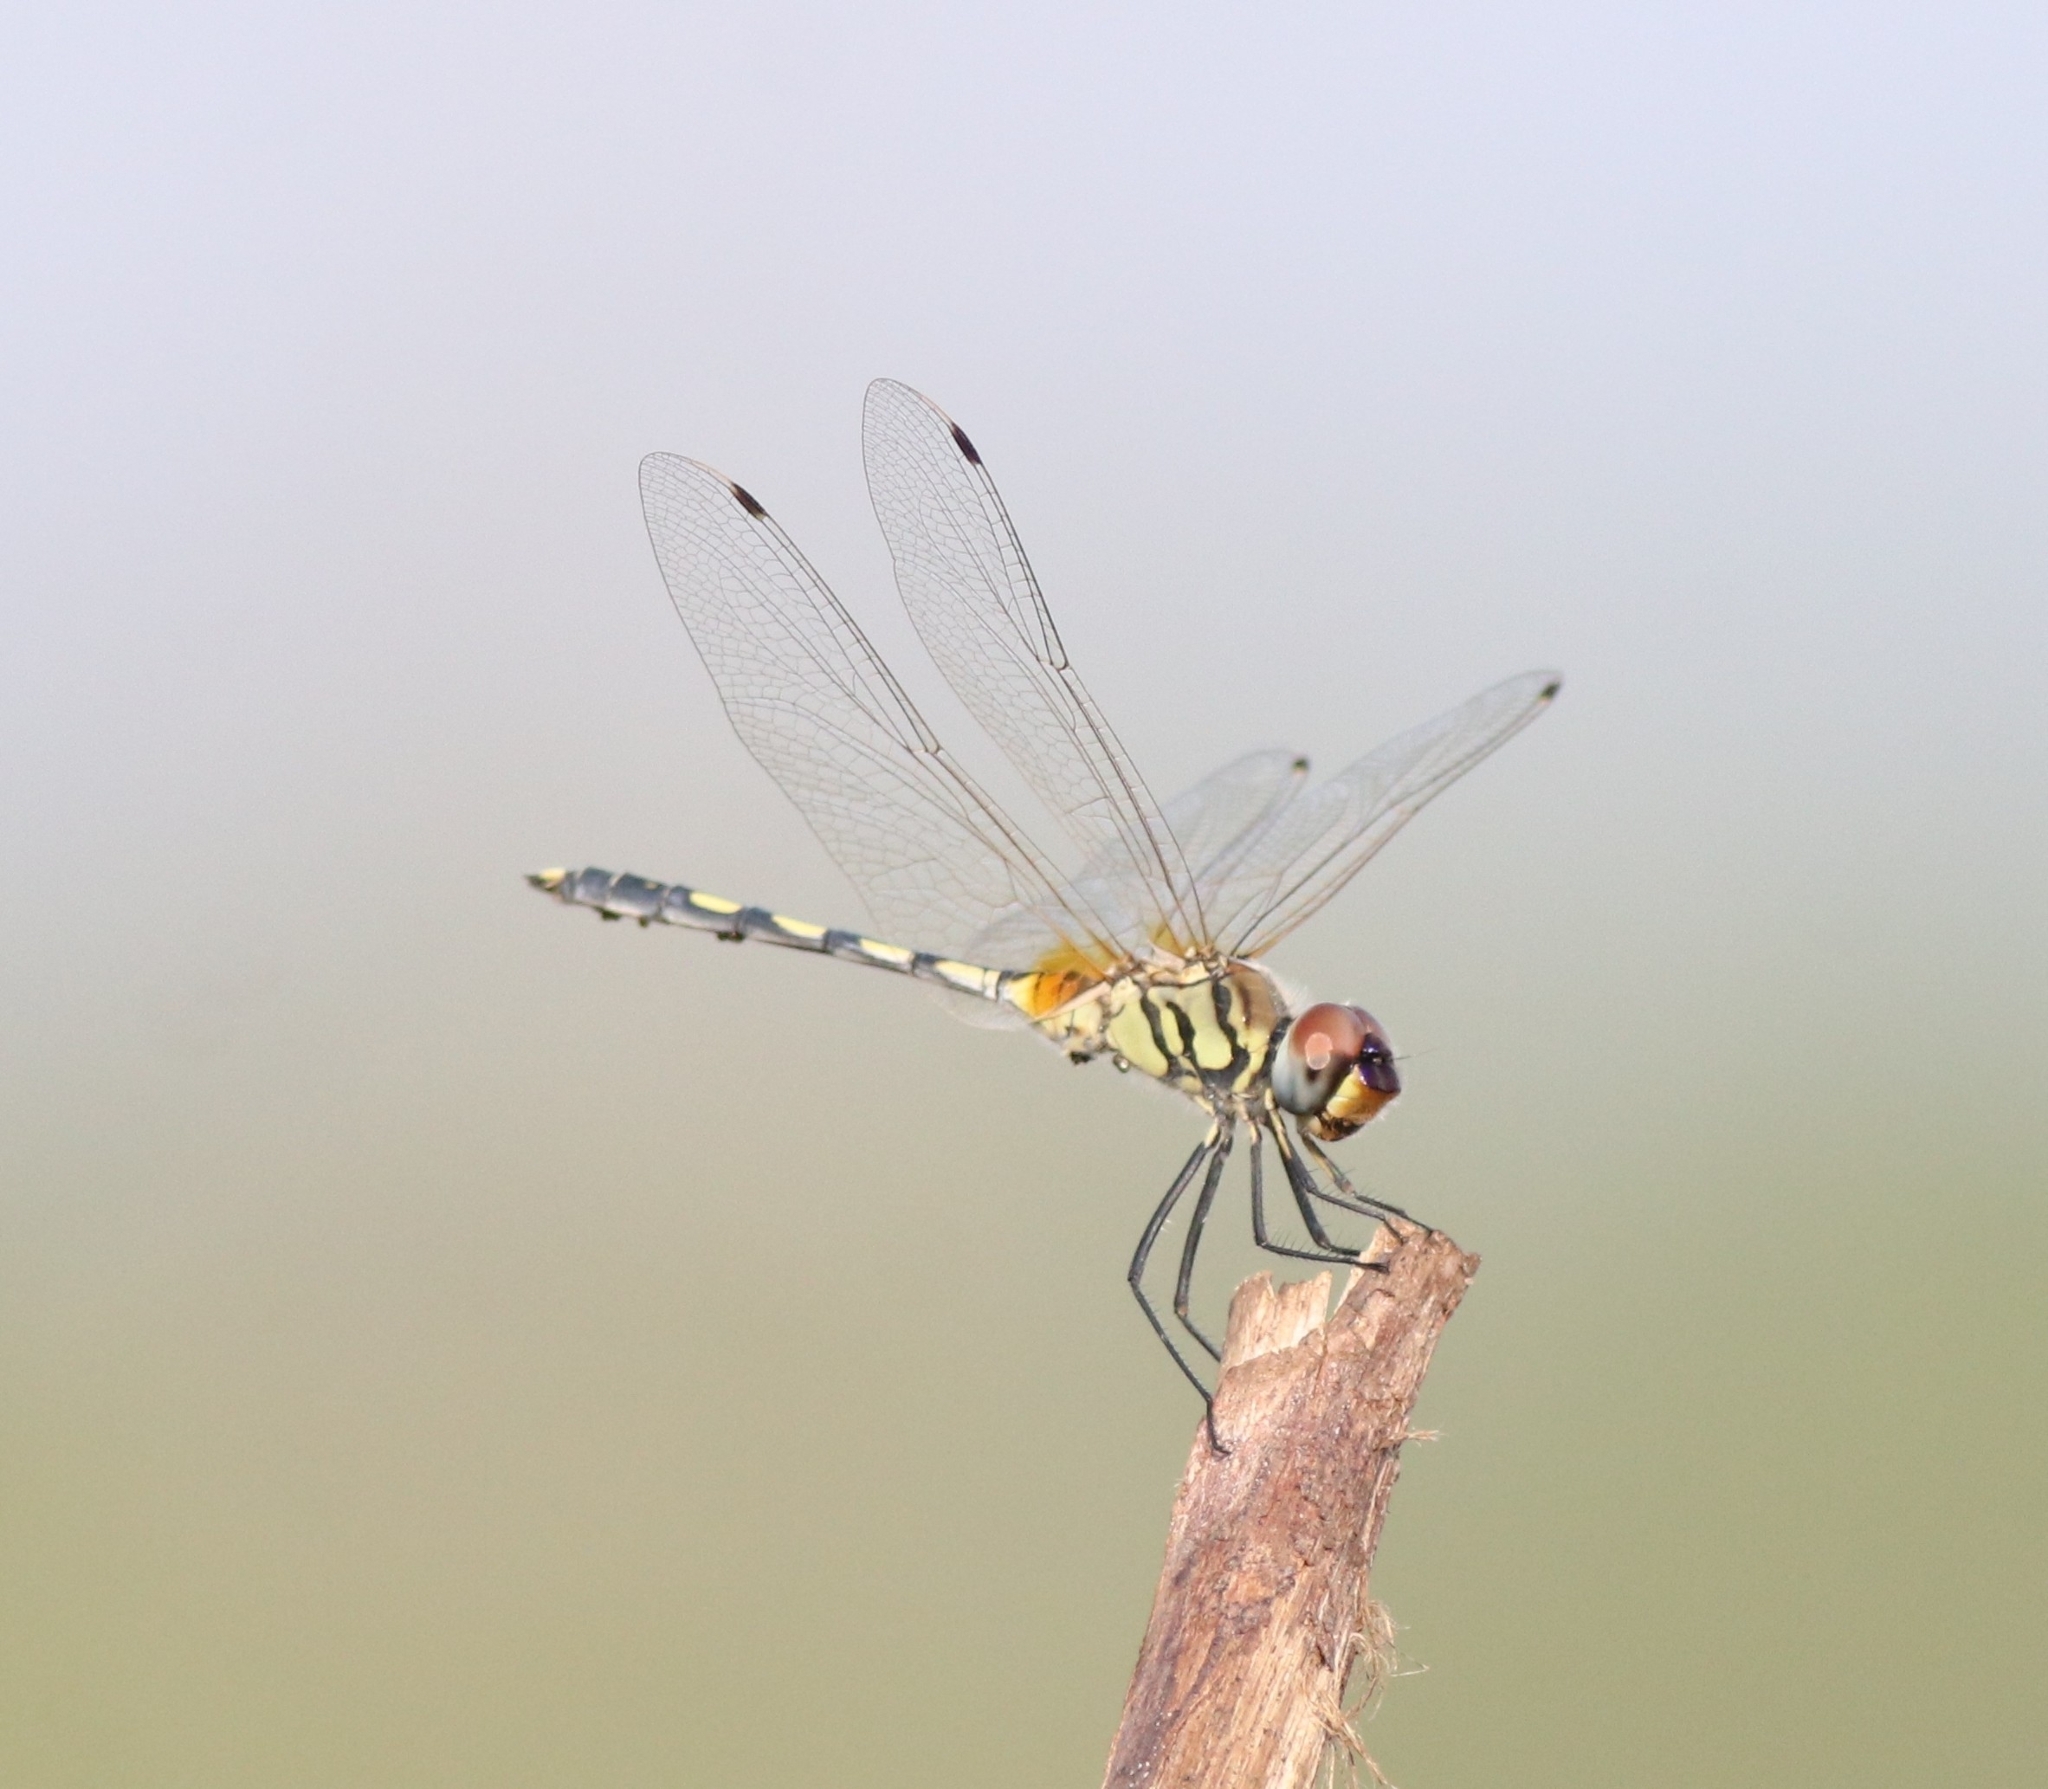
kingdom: Animalia
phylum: Arthropoda
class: Insecta
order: Odonata
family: Libellulidae
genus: Trithemis
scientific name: Trithemis pallidinervis
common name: Dancing dropwing
